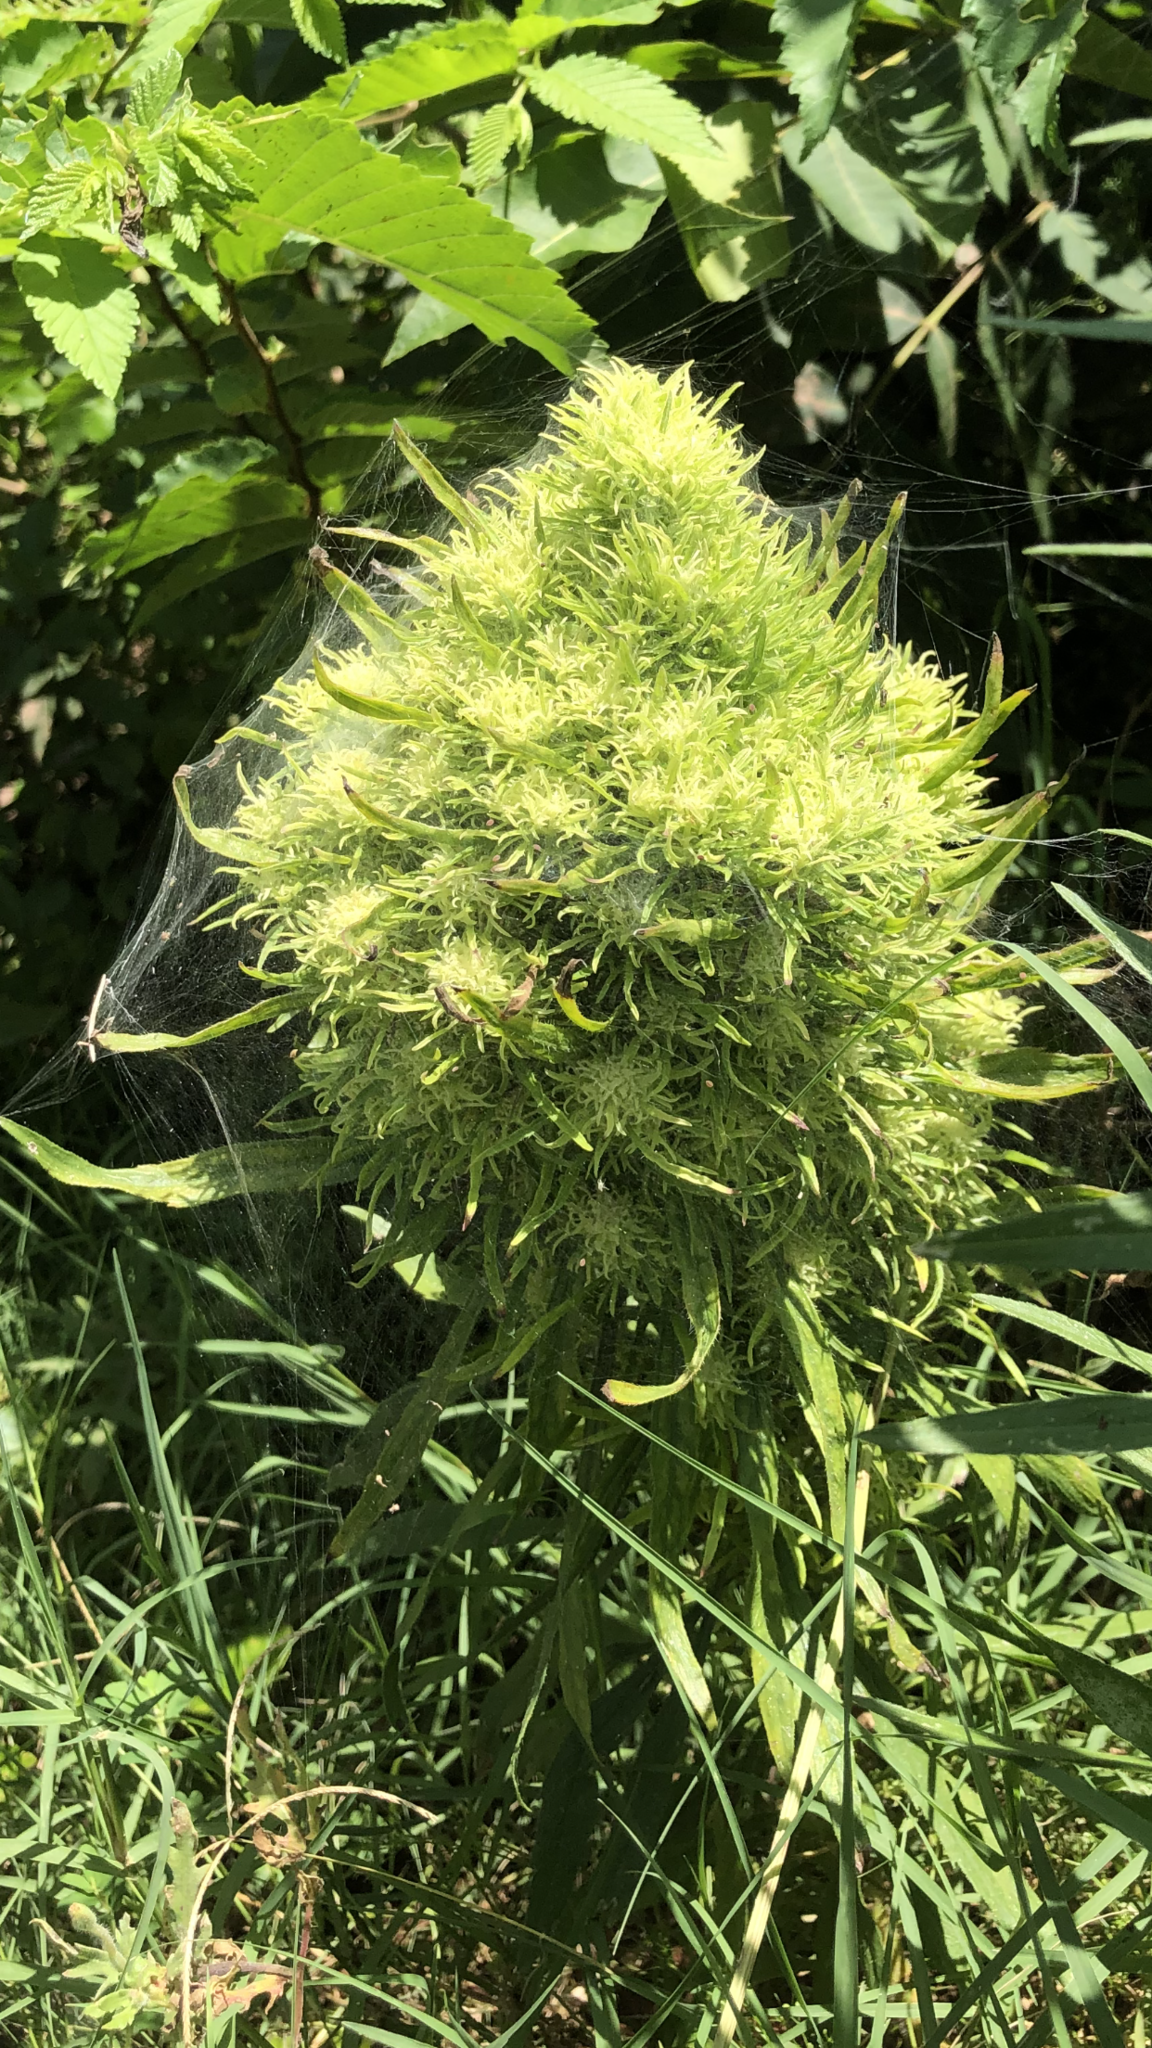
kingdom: Plantae
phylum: Tracheophyta
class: Magnoliopsida
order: Rosales
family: Cannabaceae
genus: Cannabis
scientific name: Cannabis sativa
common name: Hemp
